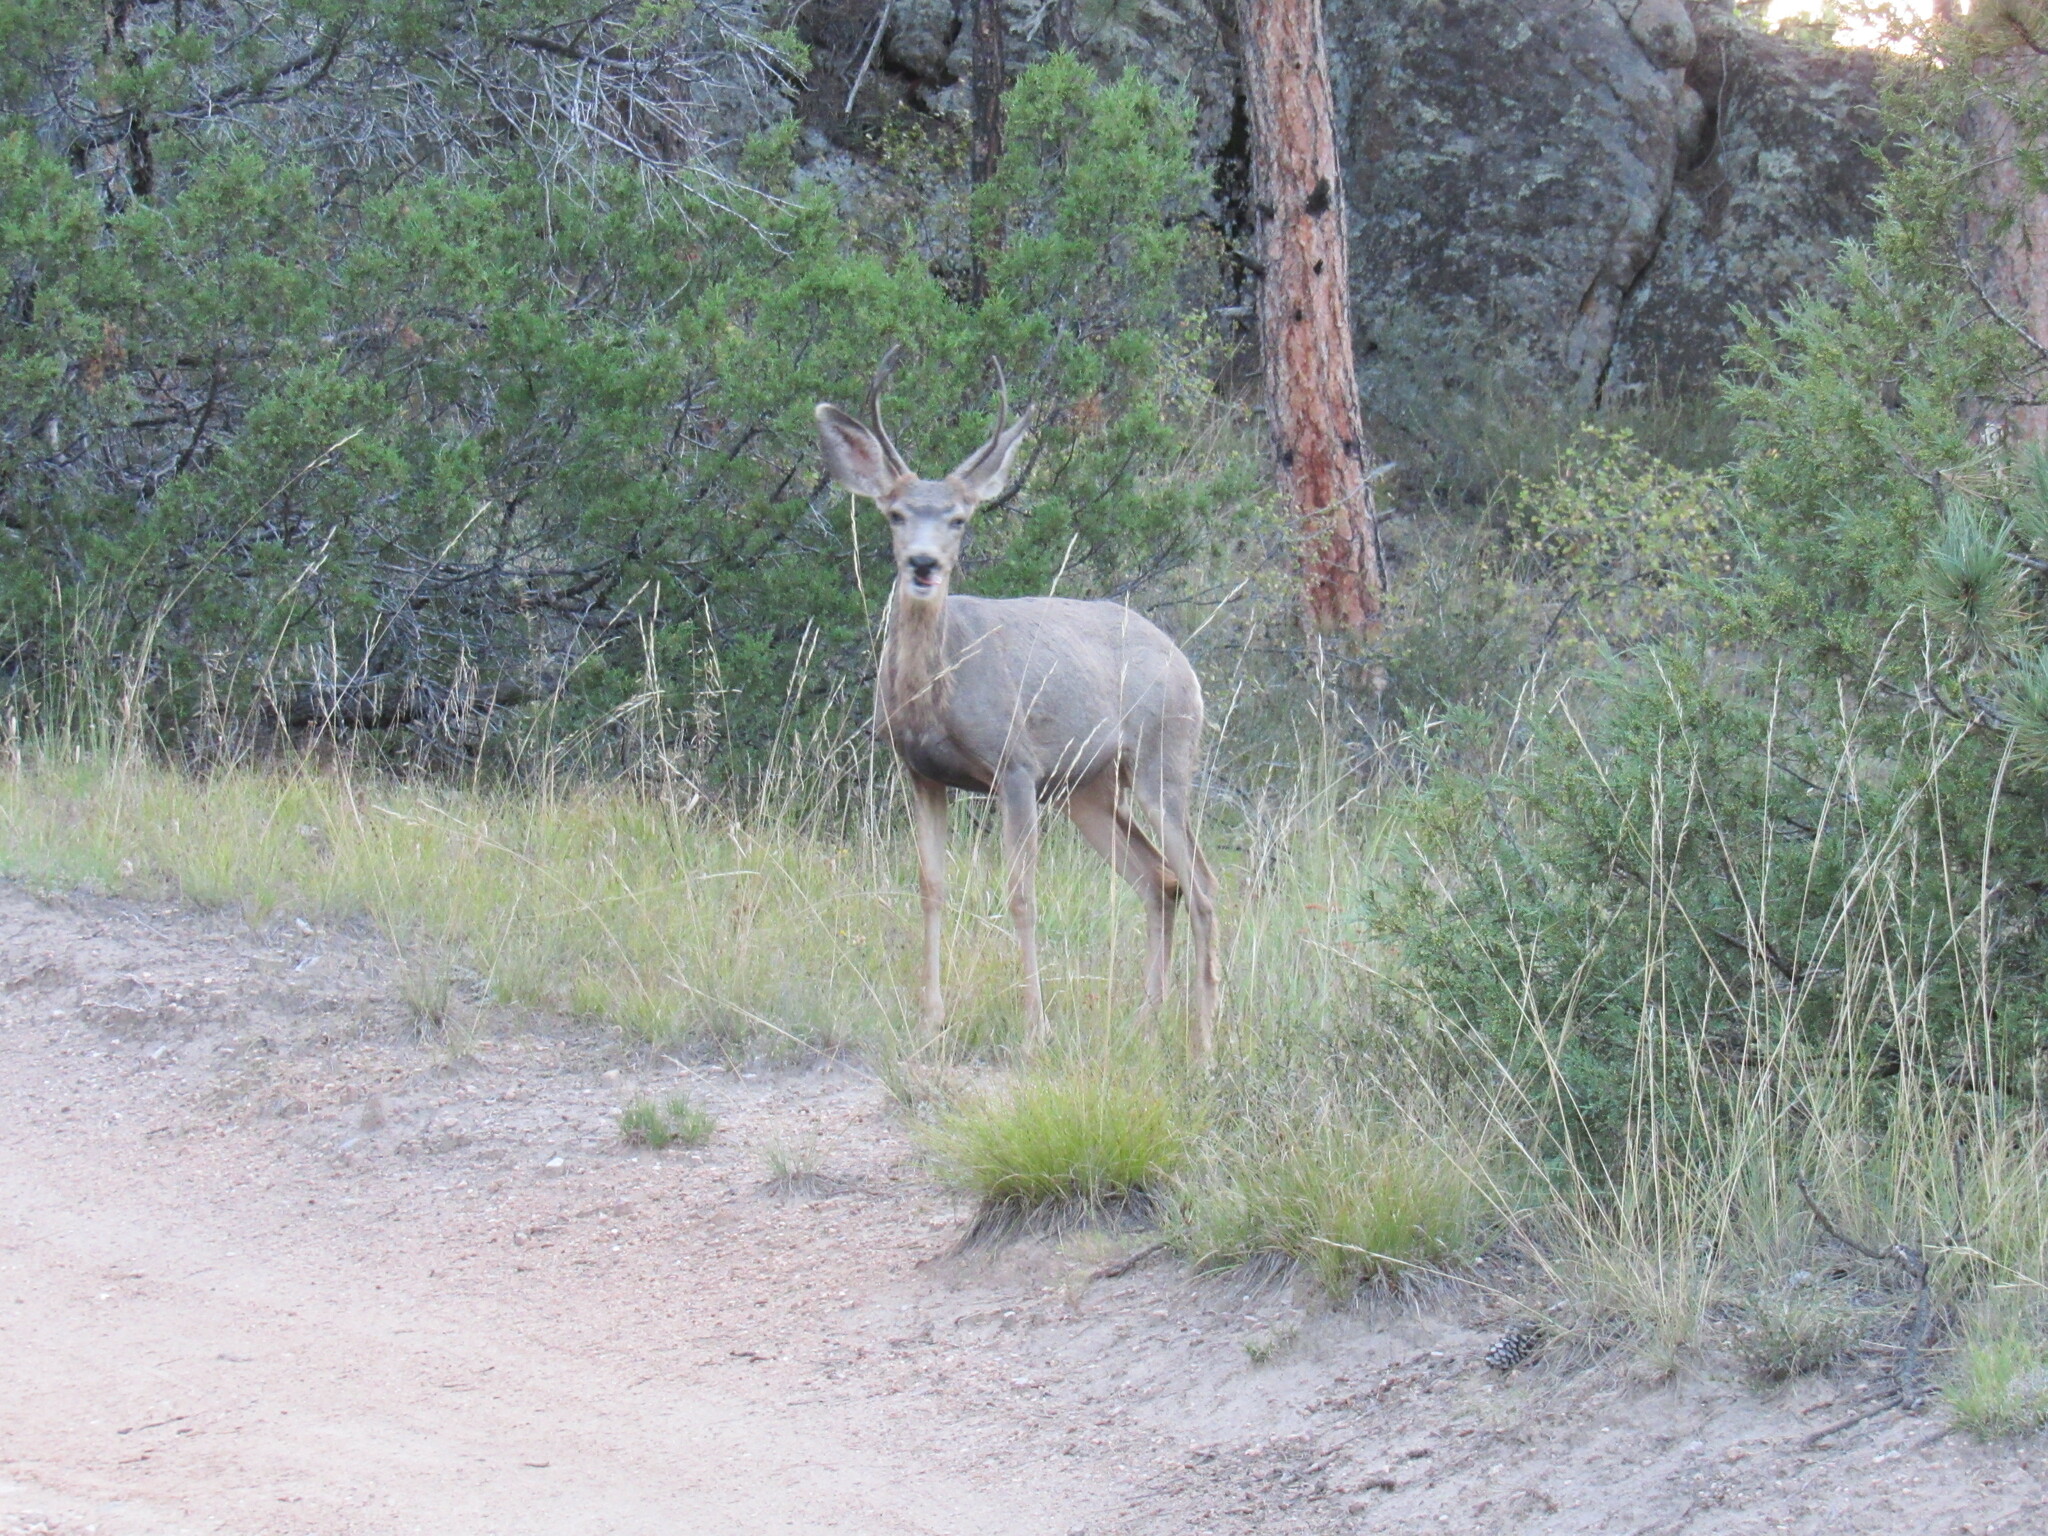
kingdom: Animalia
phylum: Chordata
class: Mammalia
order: Artiodactyla
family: Cervidae
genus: Odocoileus
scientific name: Odocoileus hemionus
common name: Mule deer
